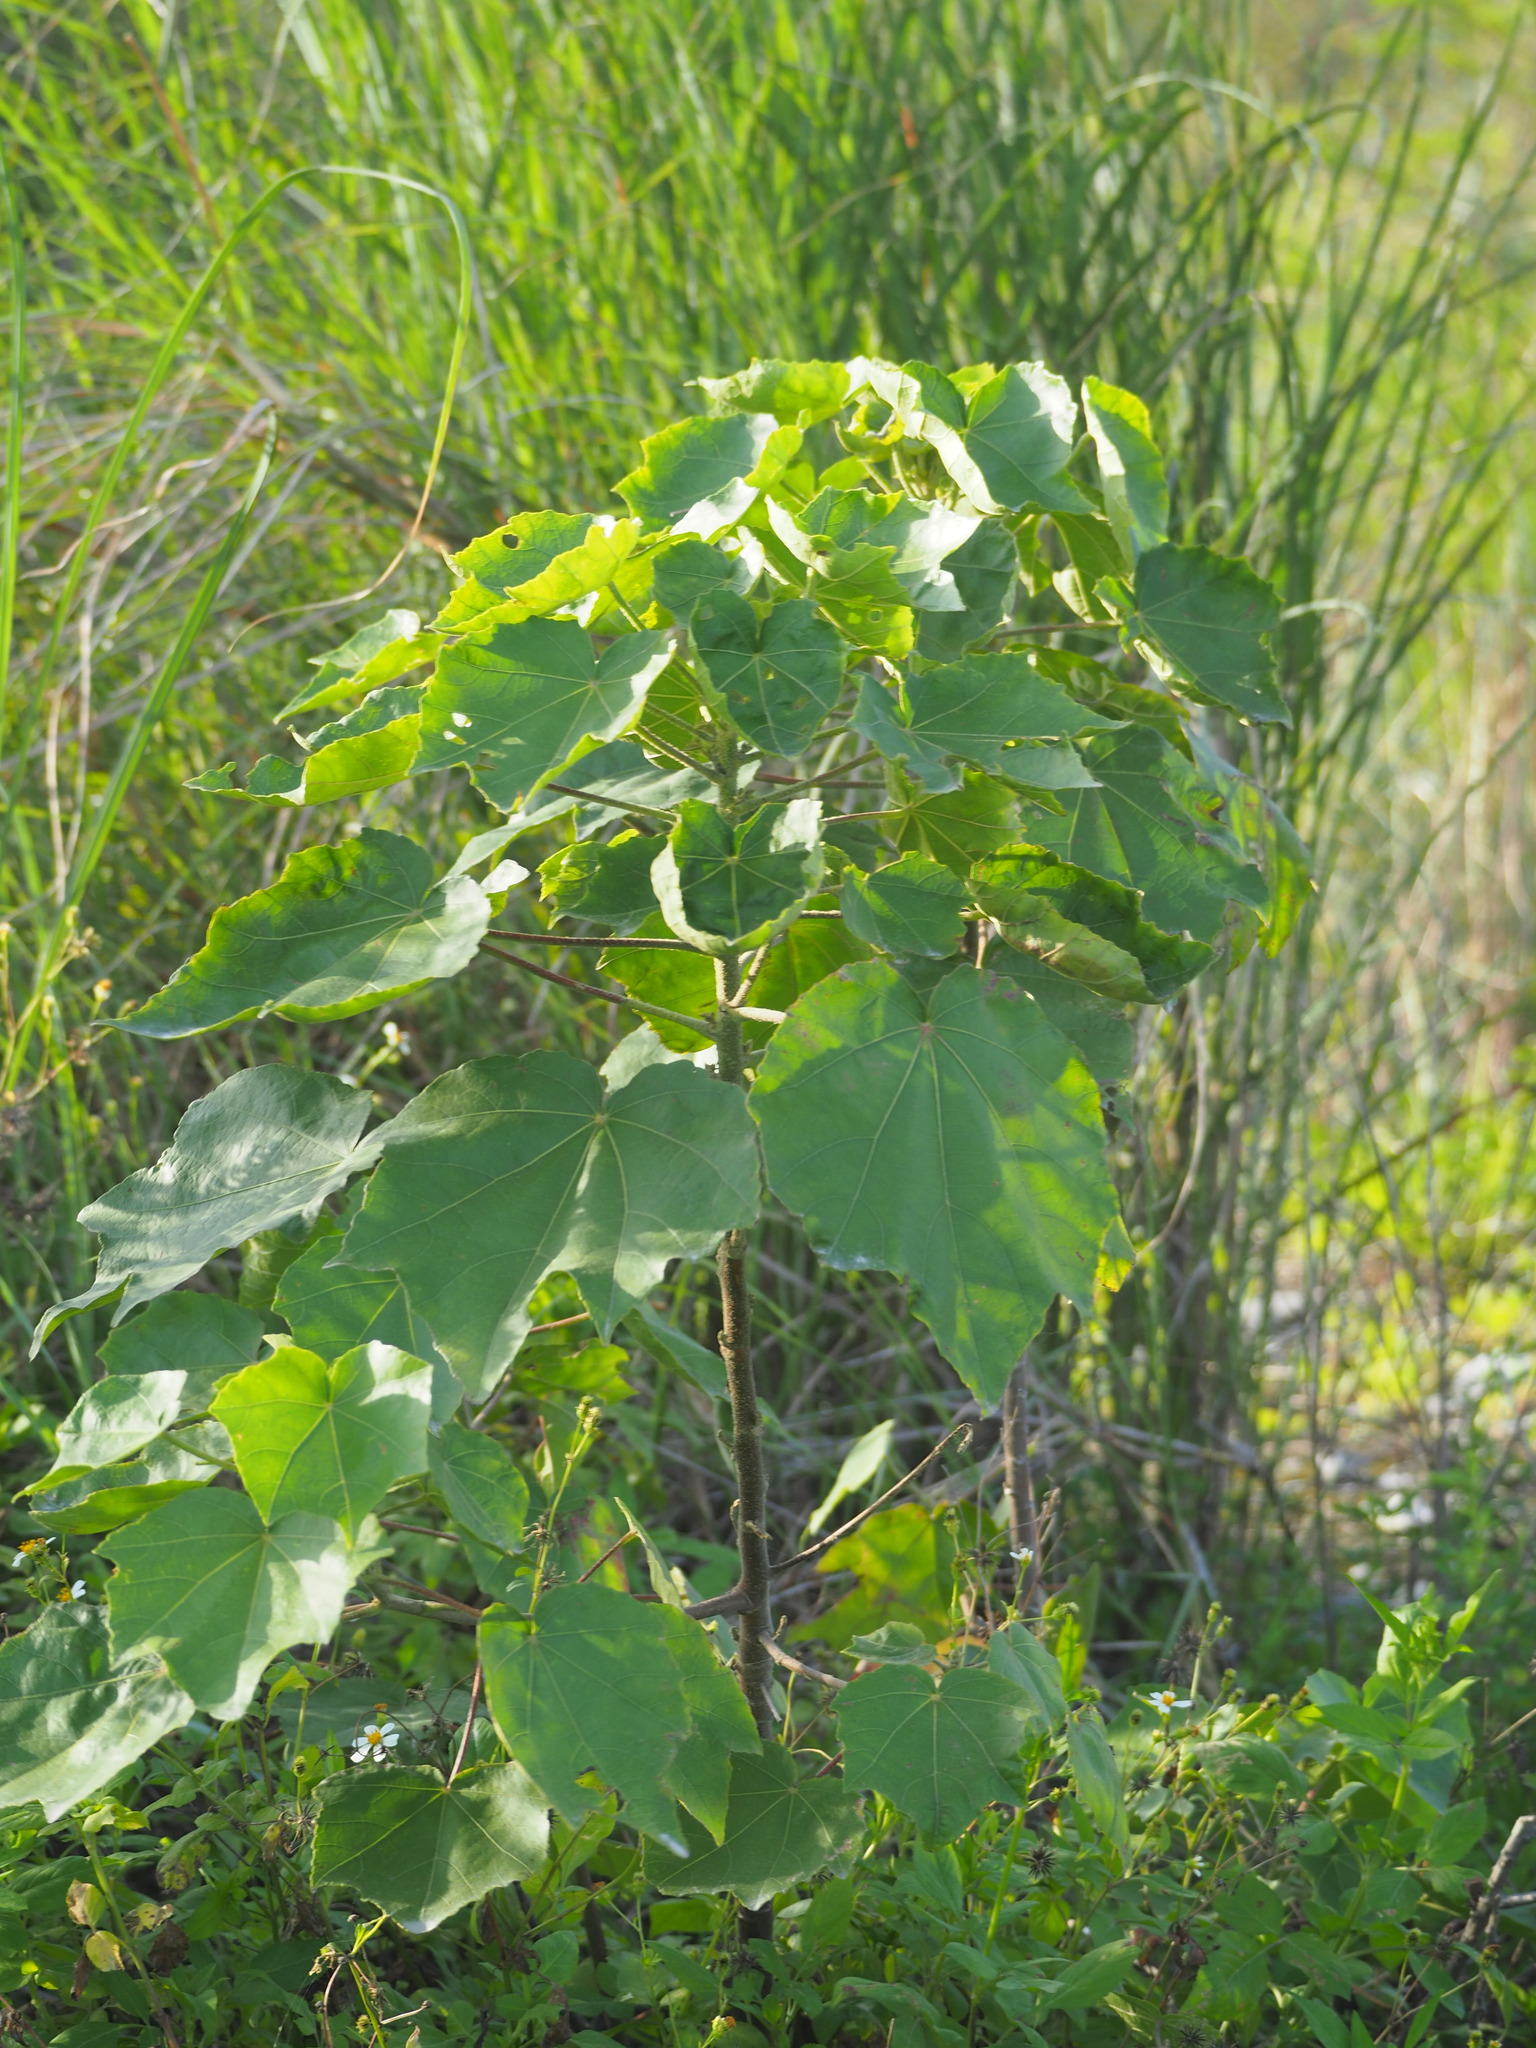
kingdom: Plantae
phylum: Tracheophyta
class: Magnoliopsida
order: Malvales
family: Malvaceae
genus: Hibiscus
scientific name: Hibiscus makinoi
